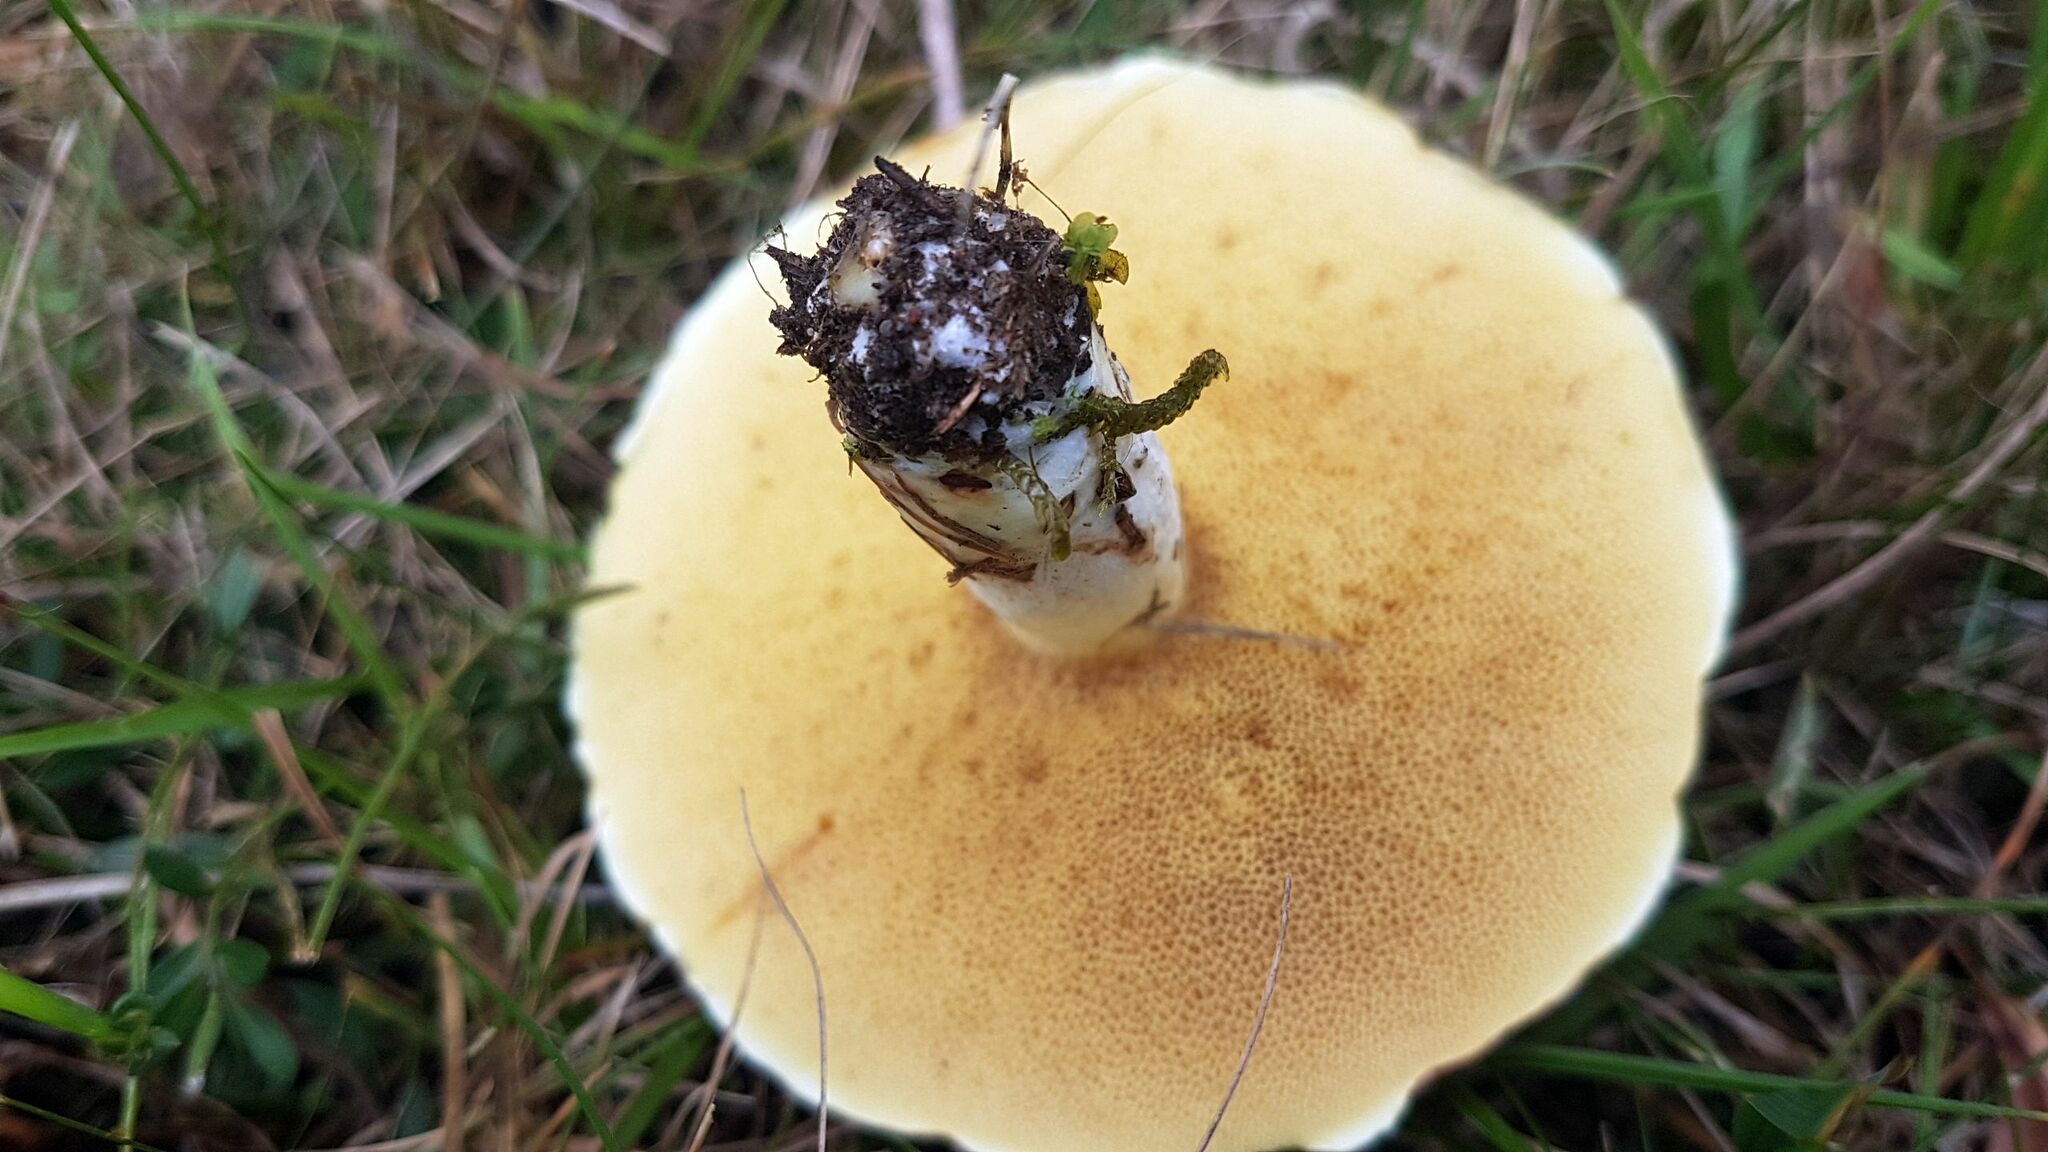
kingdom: Fungi
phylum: Basidiomycota
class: Agaricomycetes
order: Boletales
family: Suillaceae
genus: Suillus
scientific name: Suillus granulatus
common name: Weeping bolete
